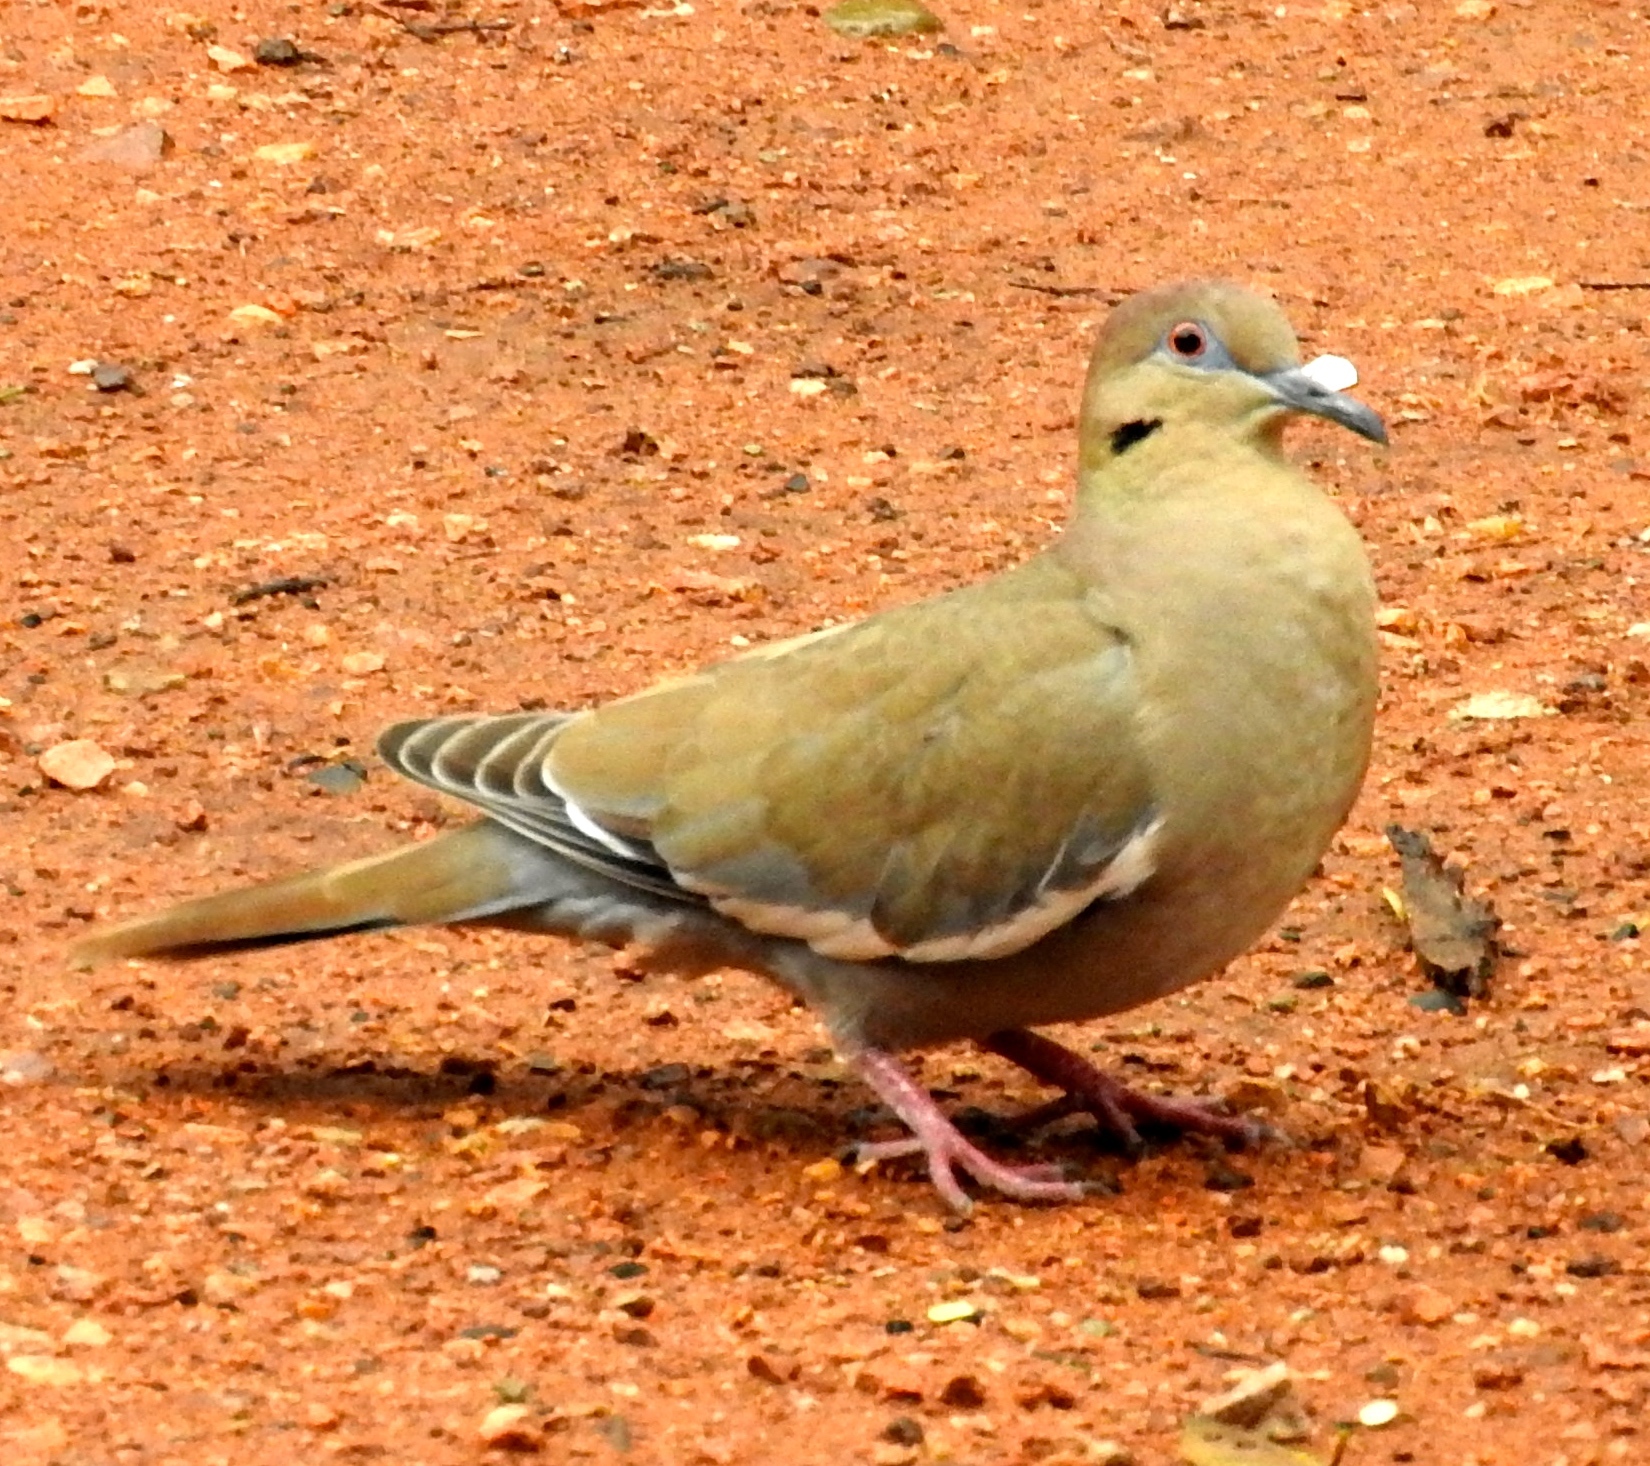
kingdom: Animalia
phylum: Chordata
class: Aves
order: Columbiformes
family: Columbidae
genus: Zenaida
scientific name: Zenaida asiatica
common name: White-winged dove
